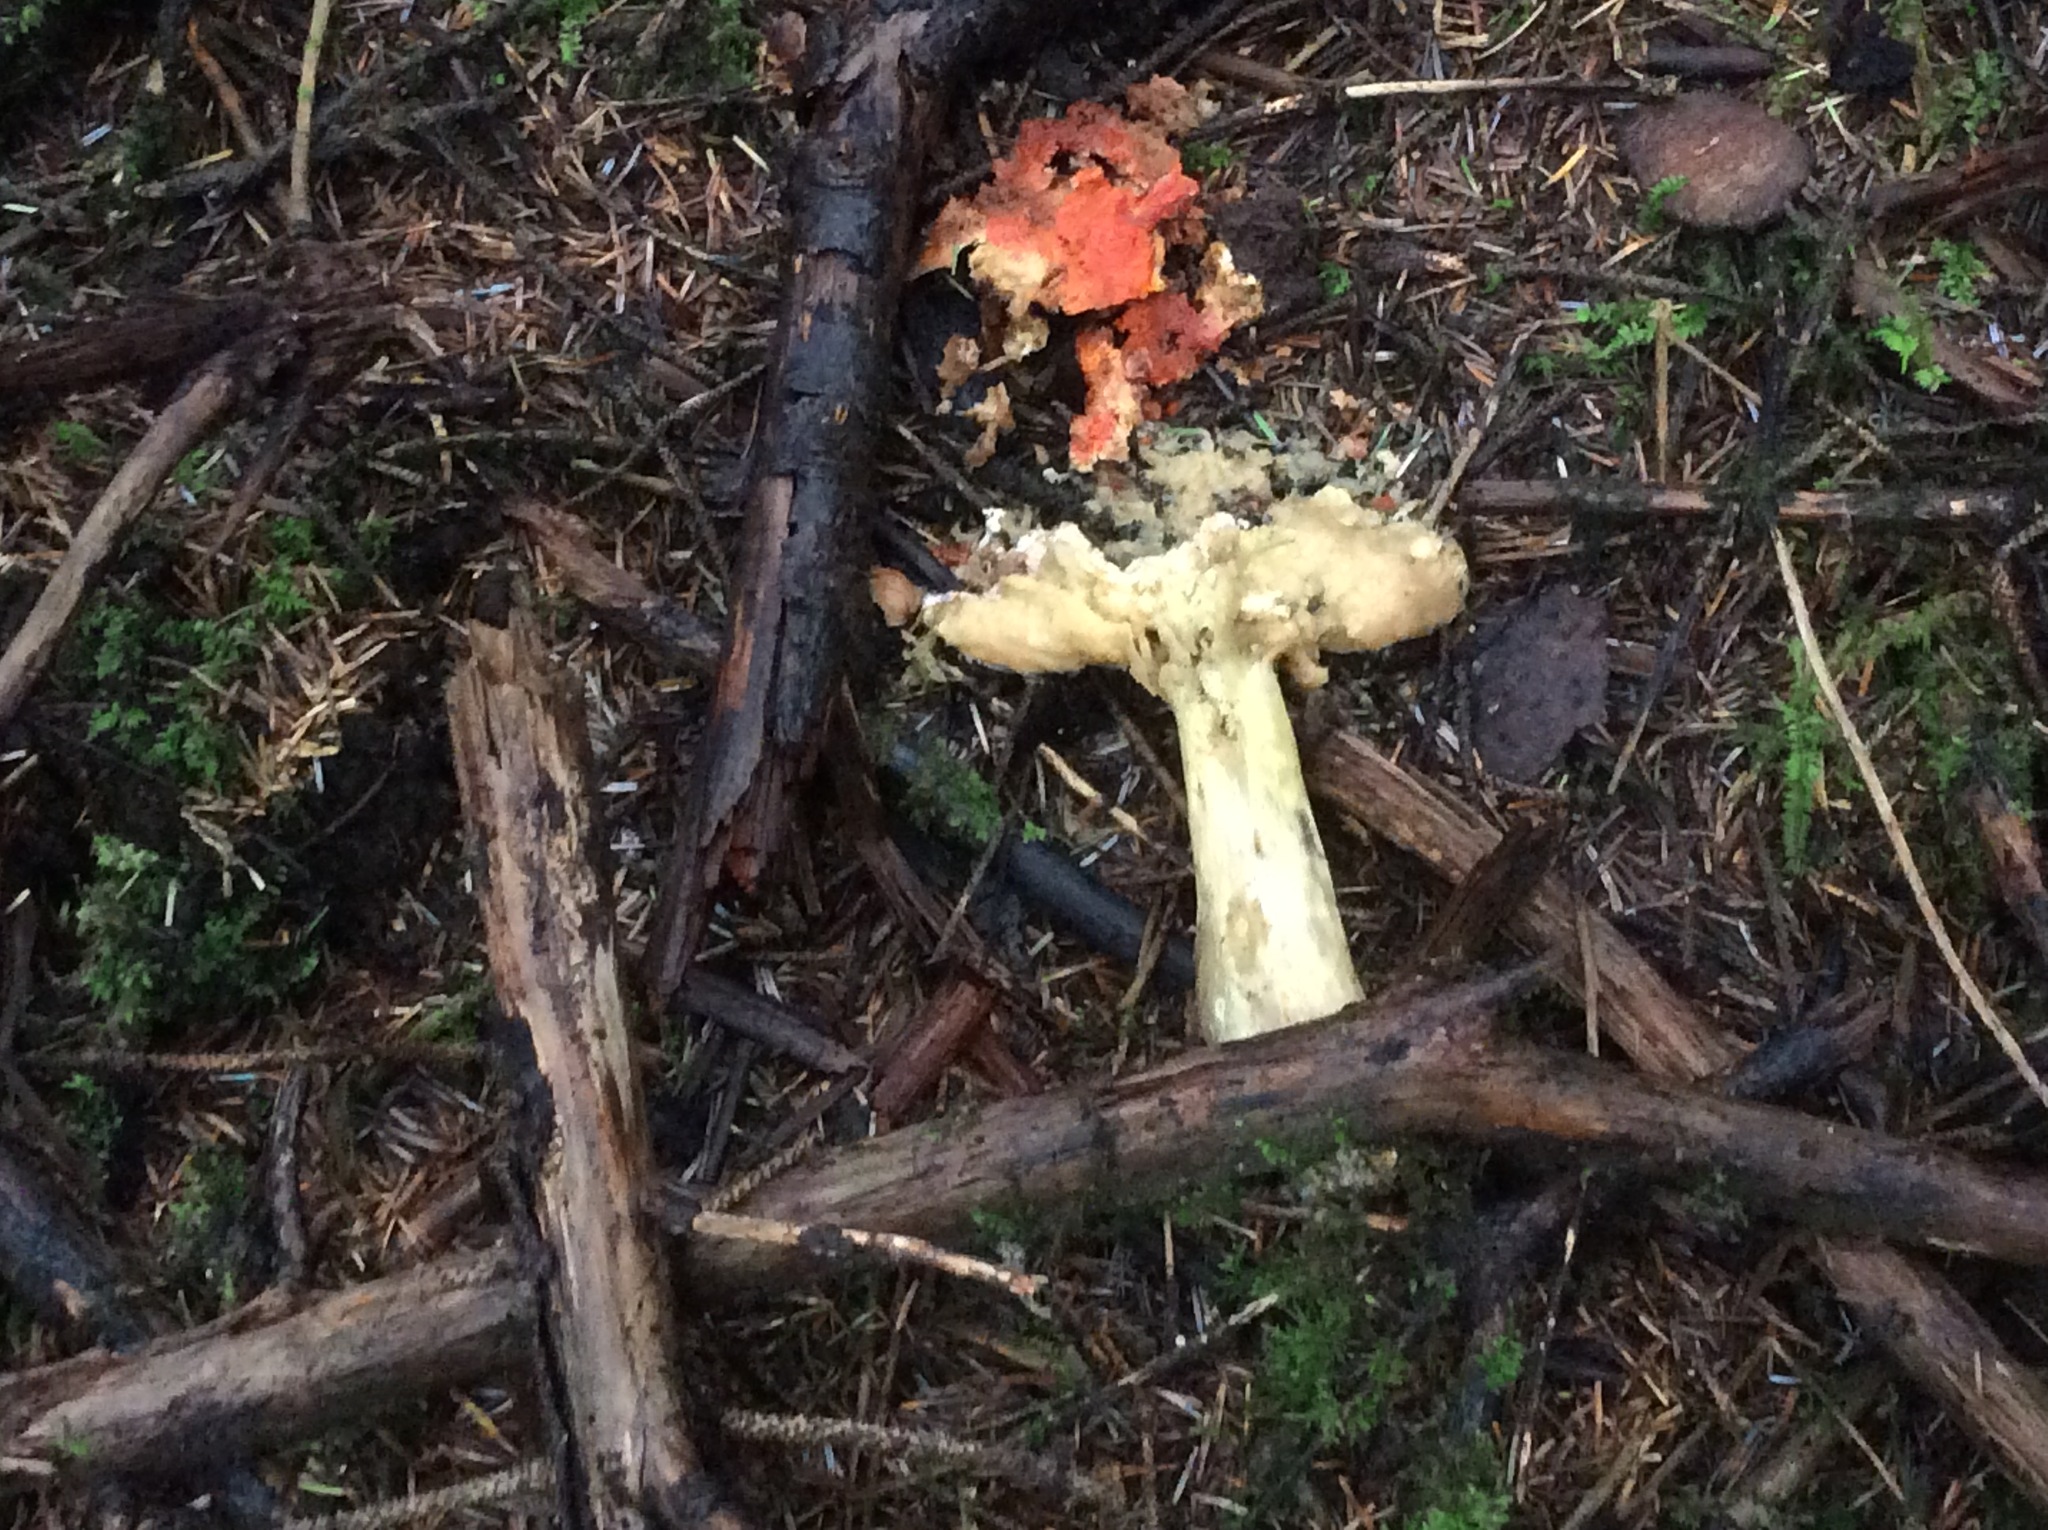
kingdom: Fungi
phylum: Ascomycota
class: Sordariomycetes
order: Hypocreales
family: Hypocreaceae
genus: Hypomyces
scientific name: Hypomyces lactifluorum
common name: Lobster mushroom
